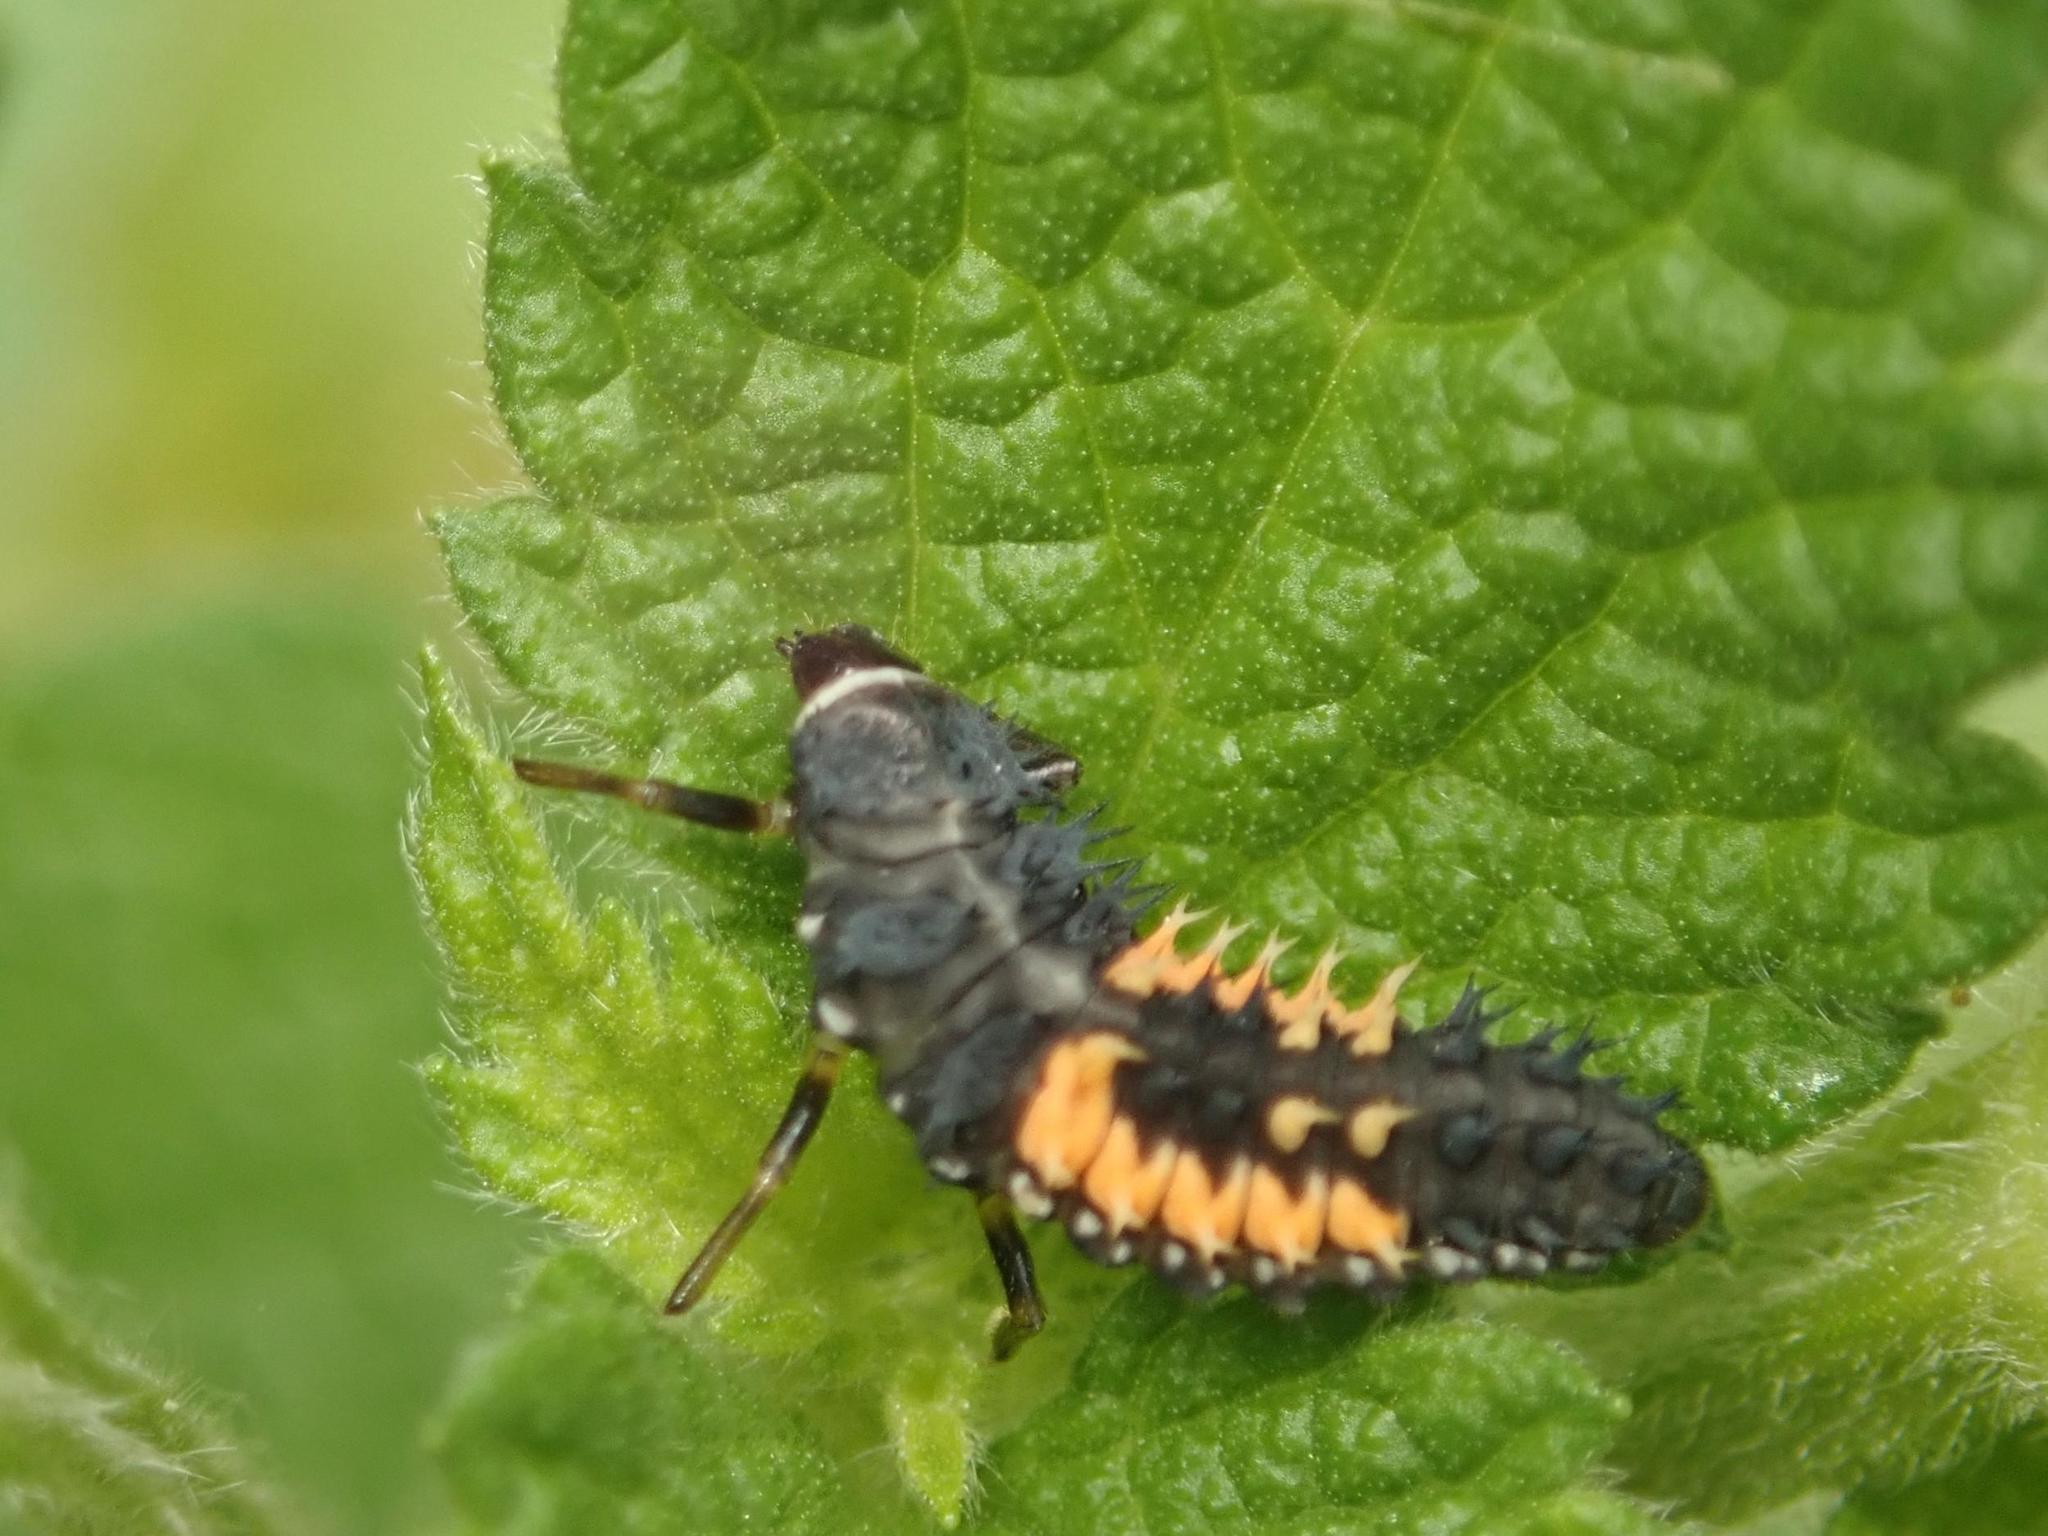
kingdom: Animalia
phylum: Arthropoda
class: Insecta
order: Coleoptera
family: Coccinellidae
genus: Harmonia
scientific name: Harmonia axyridis
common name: Harlequin ladybird
